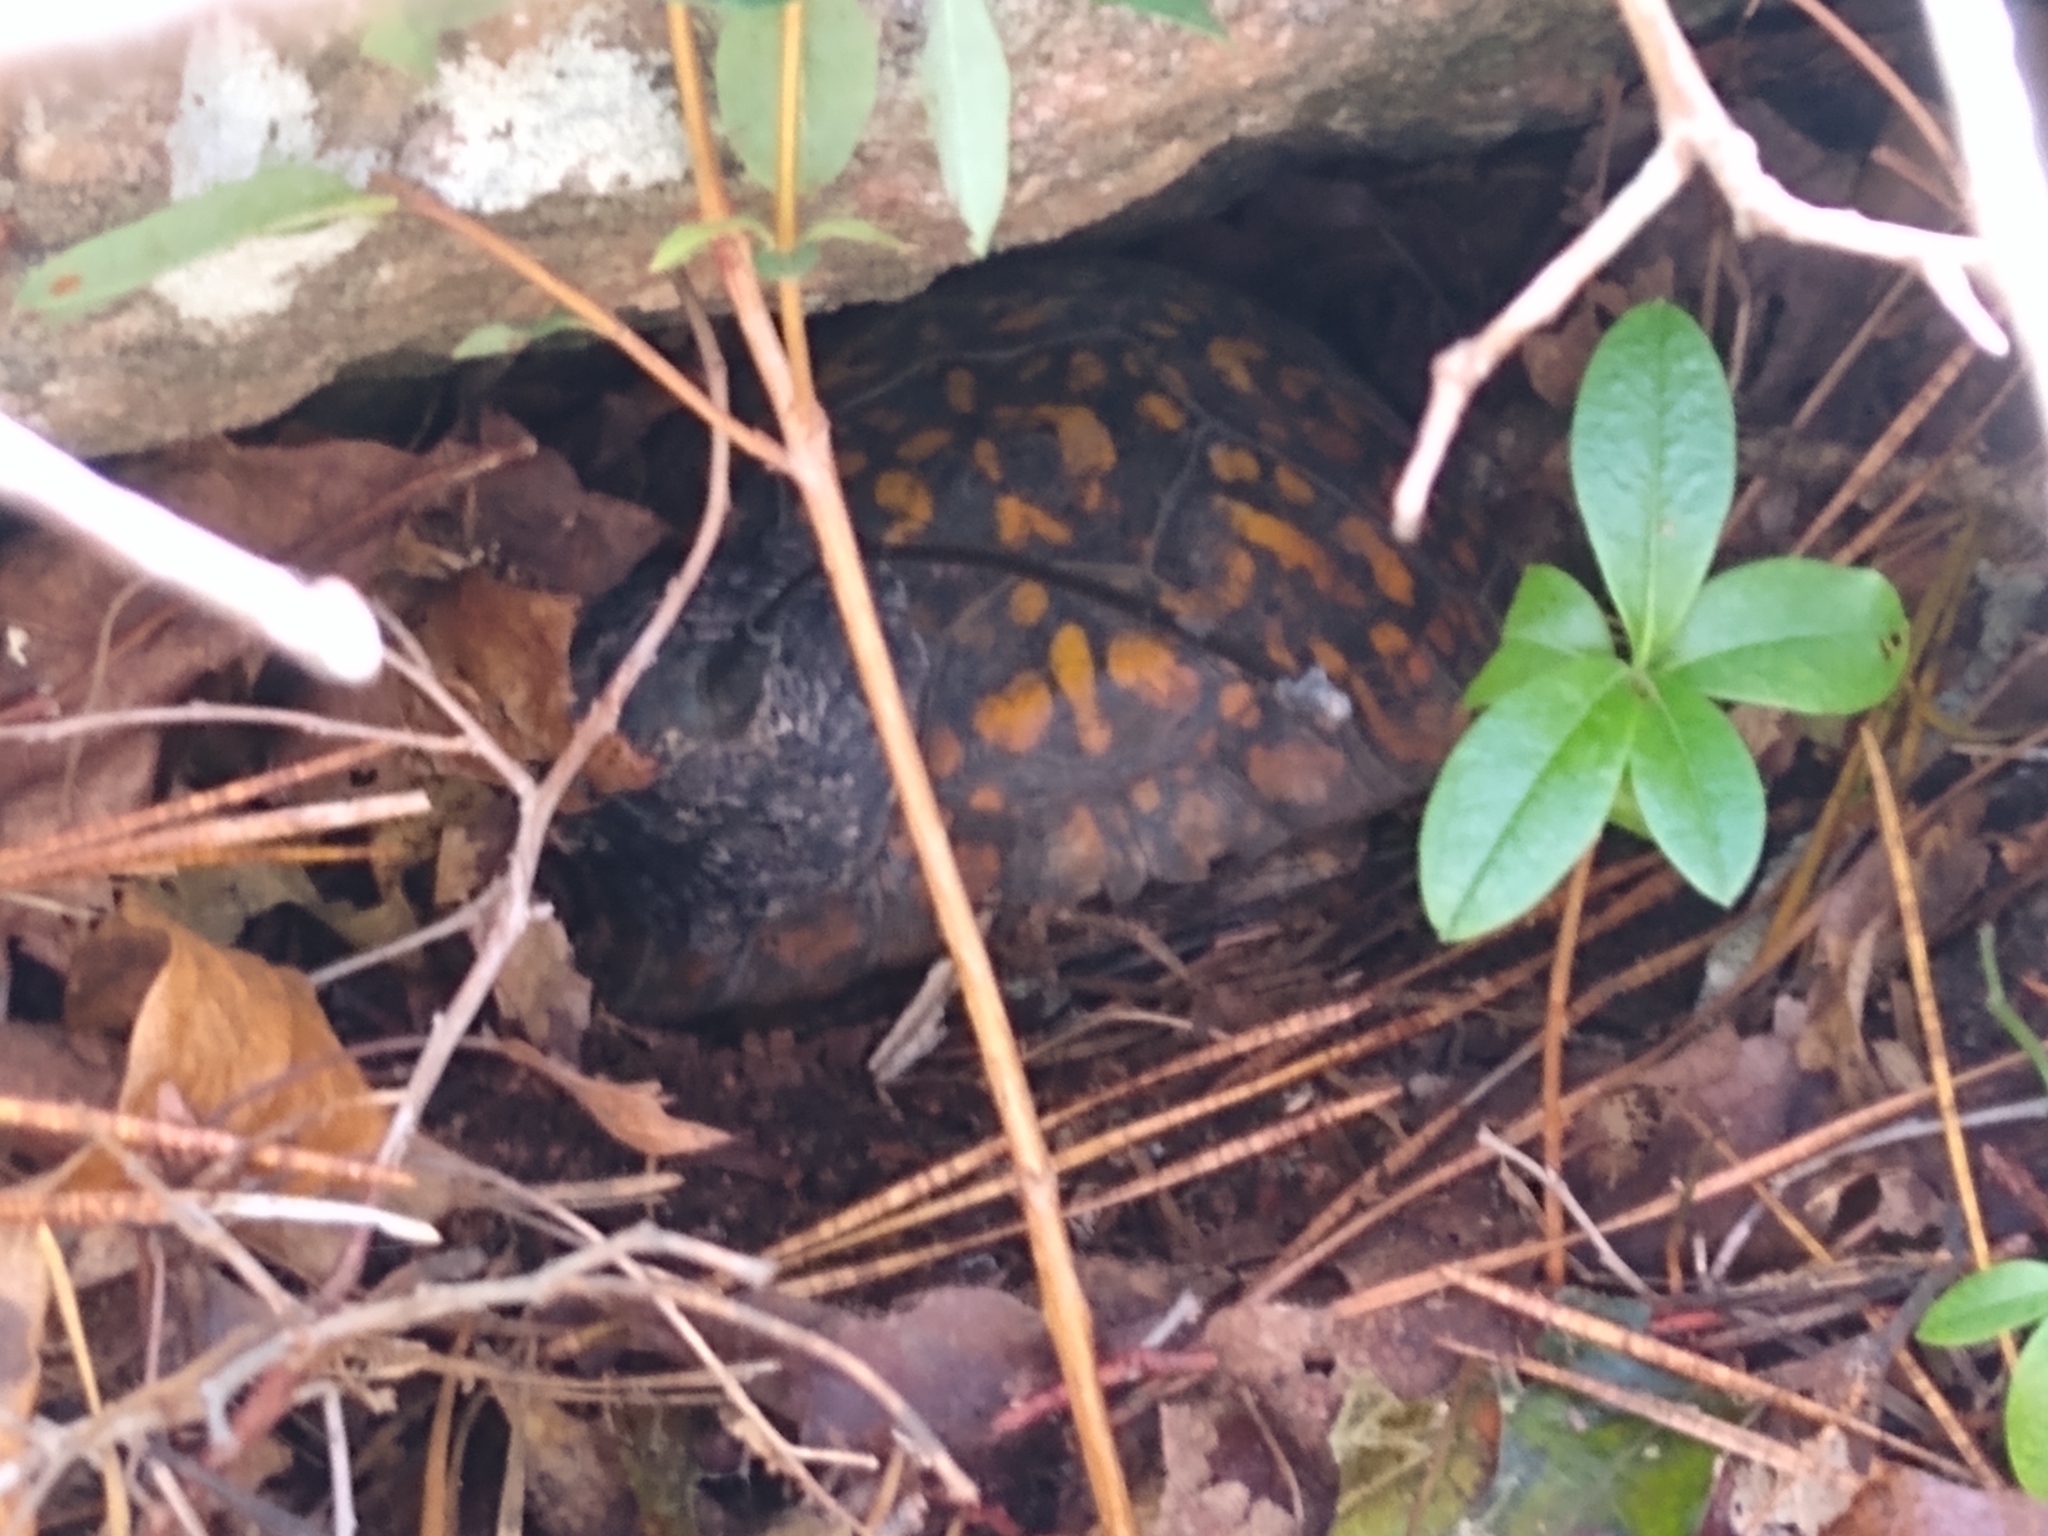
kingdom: Animalia
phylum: Chordata
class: Testudines
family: Emydidae
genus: Terrapene
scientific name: Terrapene carolina
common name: Common box turtle
